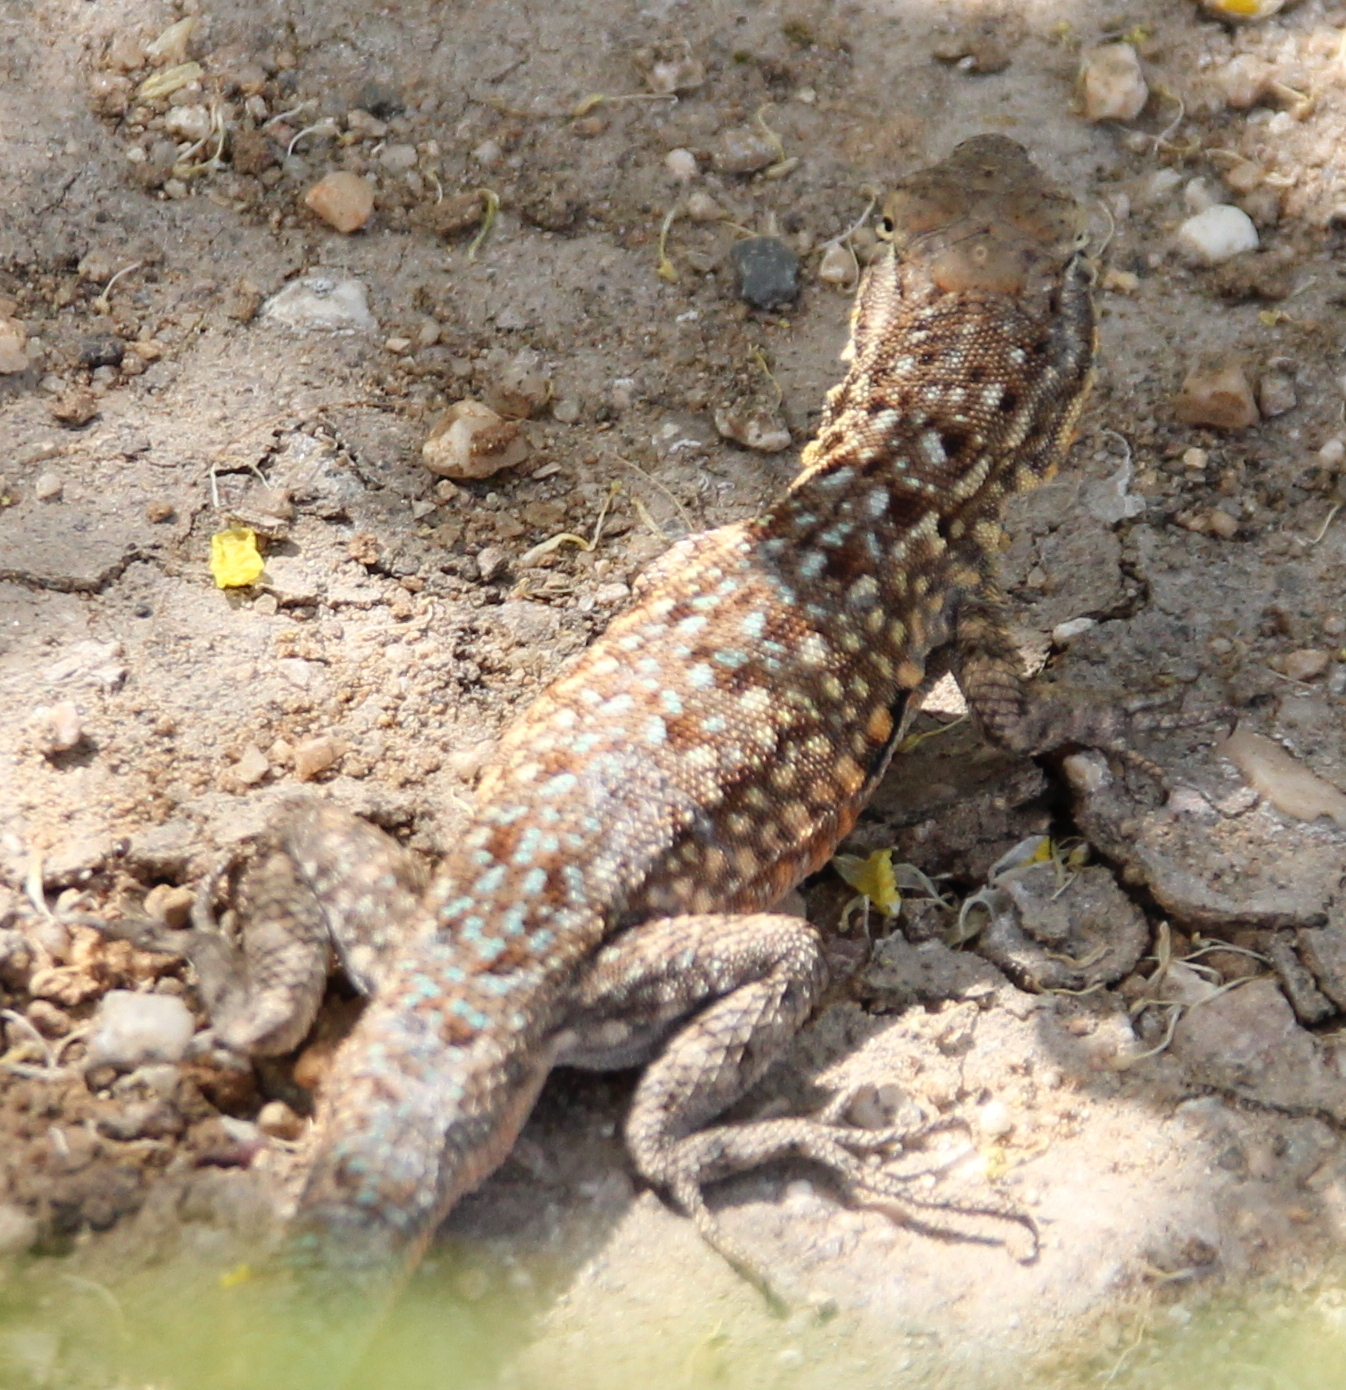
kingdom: Animalia
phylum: Chordata
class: Squamata
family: Phrynosomatidae
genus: Uta
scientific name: Uta stansburiana
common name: Side-blotched lizard
